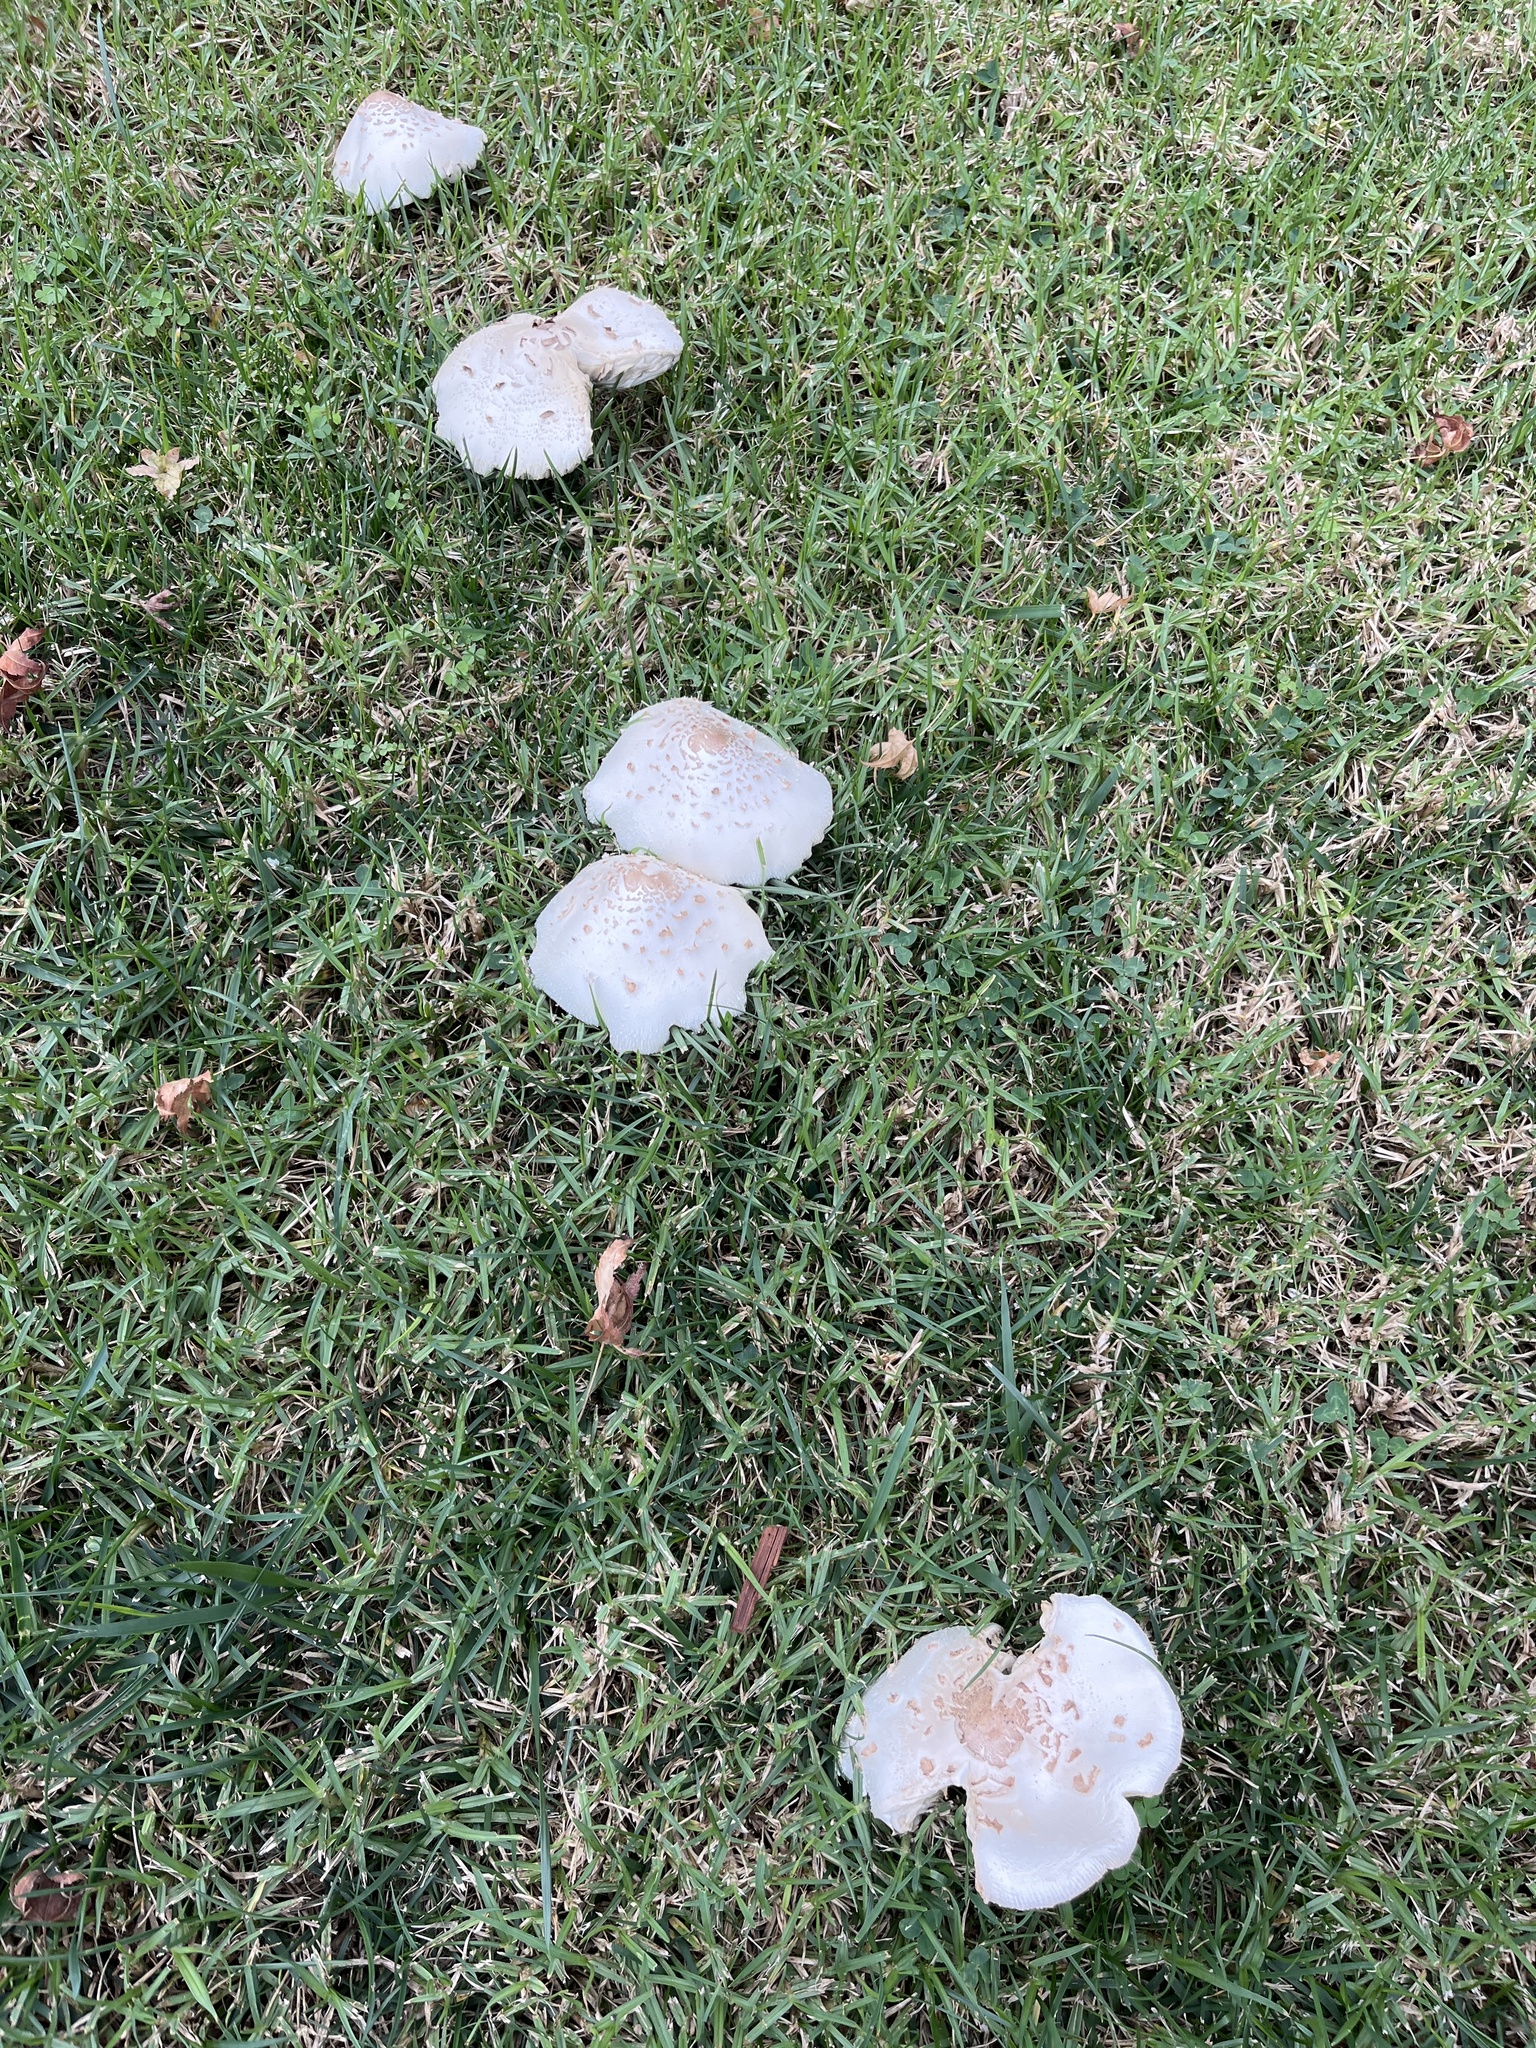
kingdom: Fungi
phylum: Basidiomycota
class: Agaricomycetes
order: Agaricales
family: Agaricaceae
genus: Chlorophyllum
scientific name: Chlorophyllum molybdites
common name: False parasol
